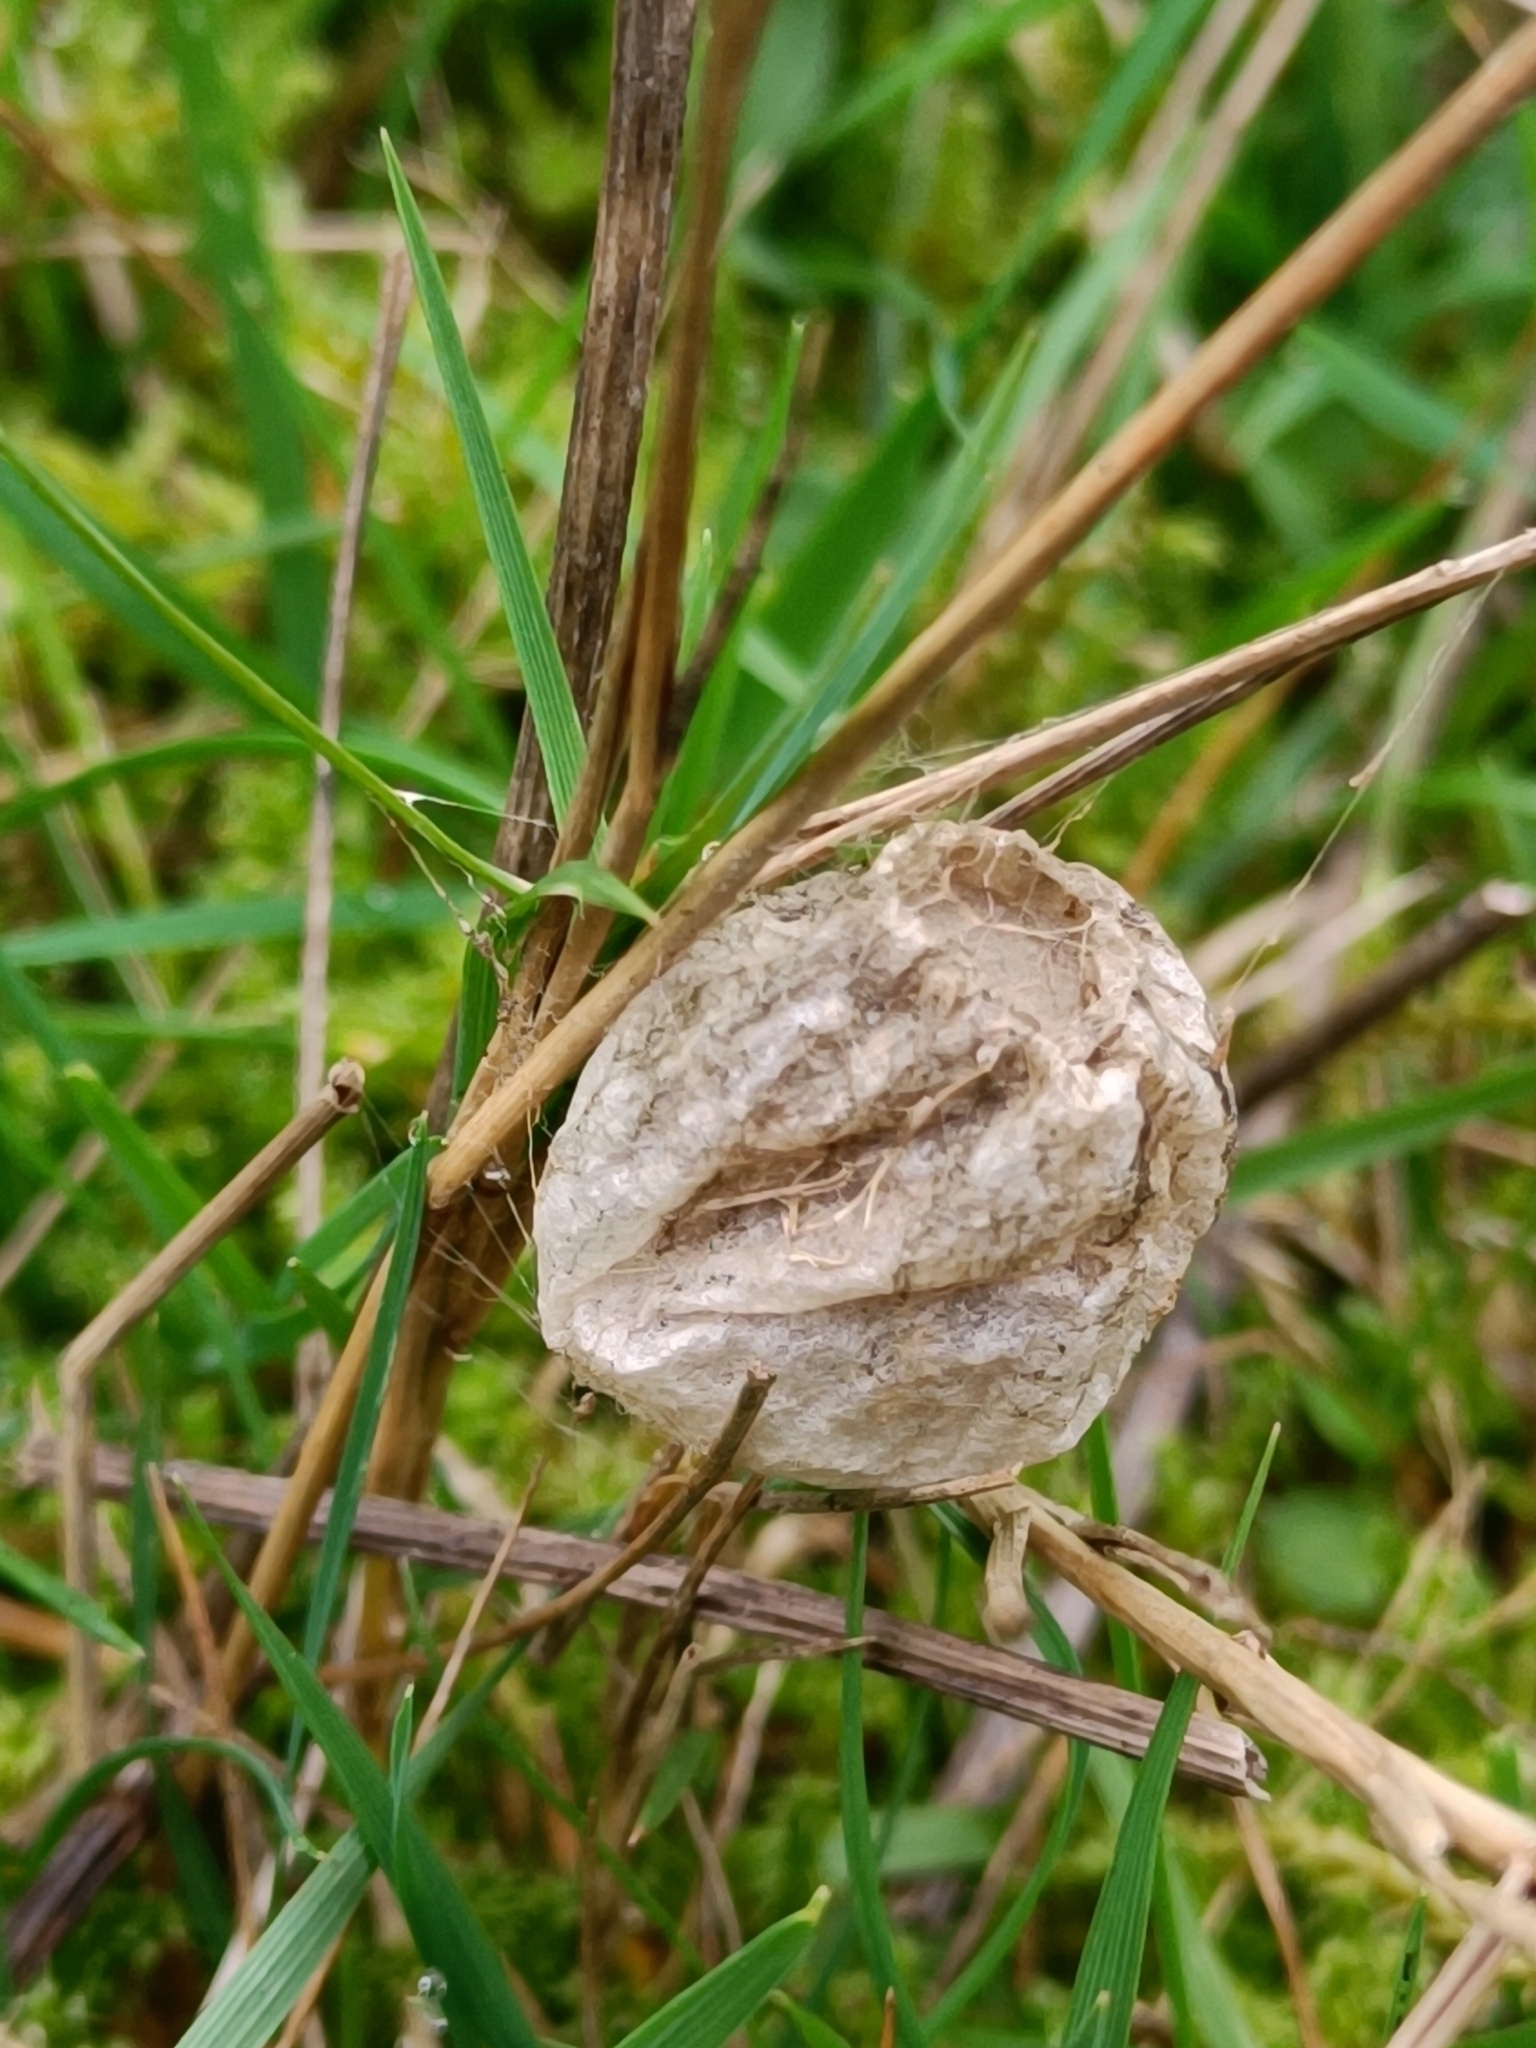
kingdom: Animalia
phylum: Arthropoda
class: Arachnida
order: Araneae
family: Araneidae
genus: Argiope
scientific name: Argiope bruennichi
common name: Wasp spider
